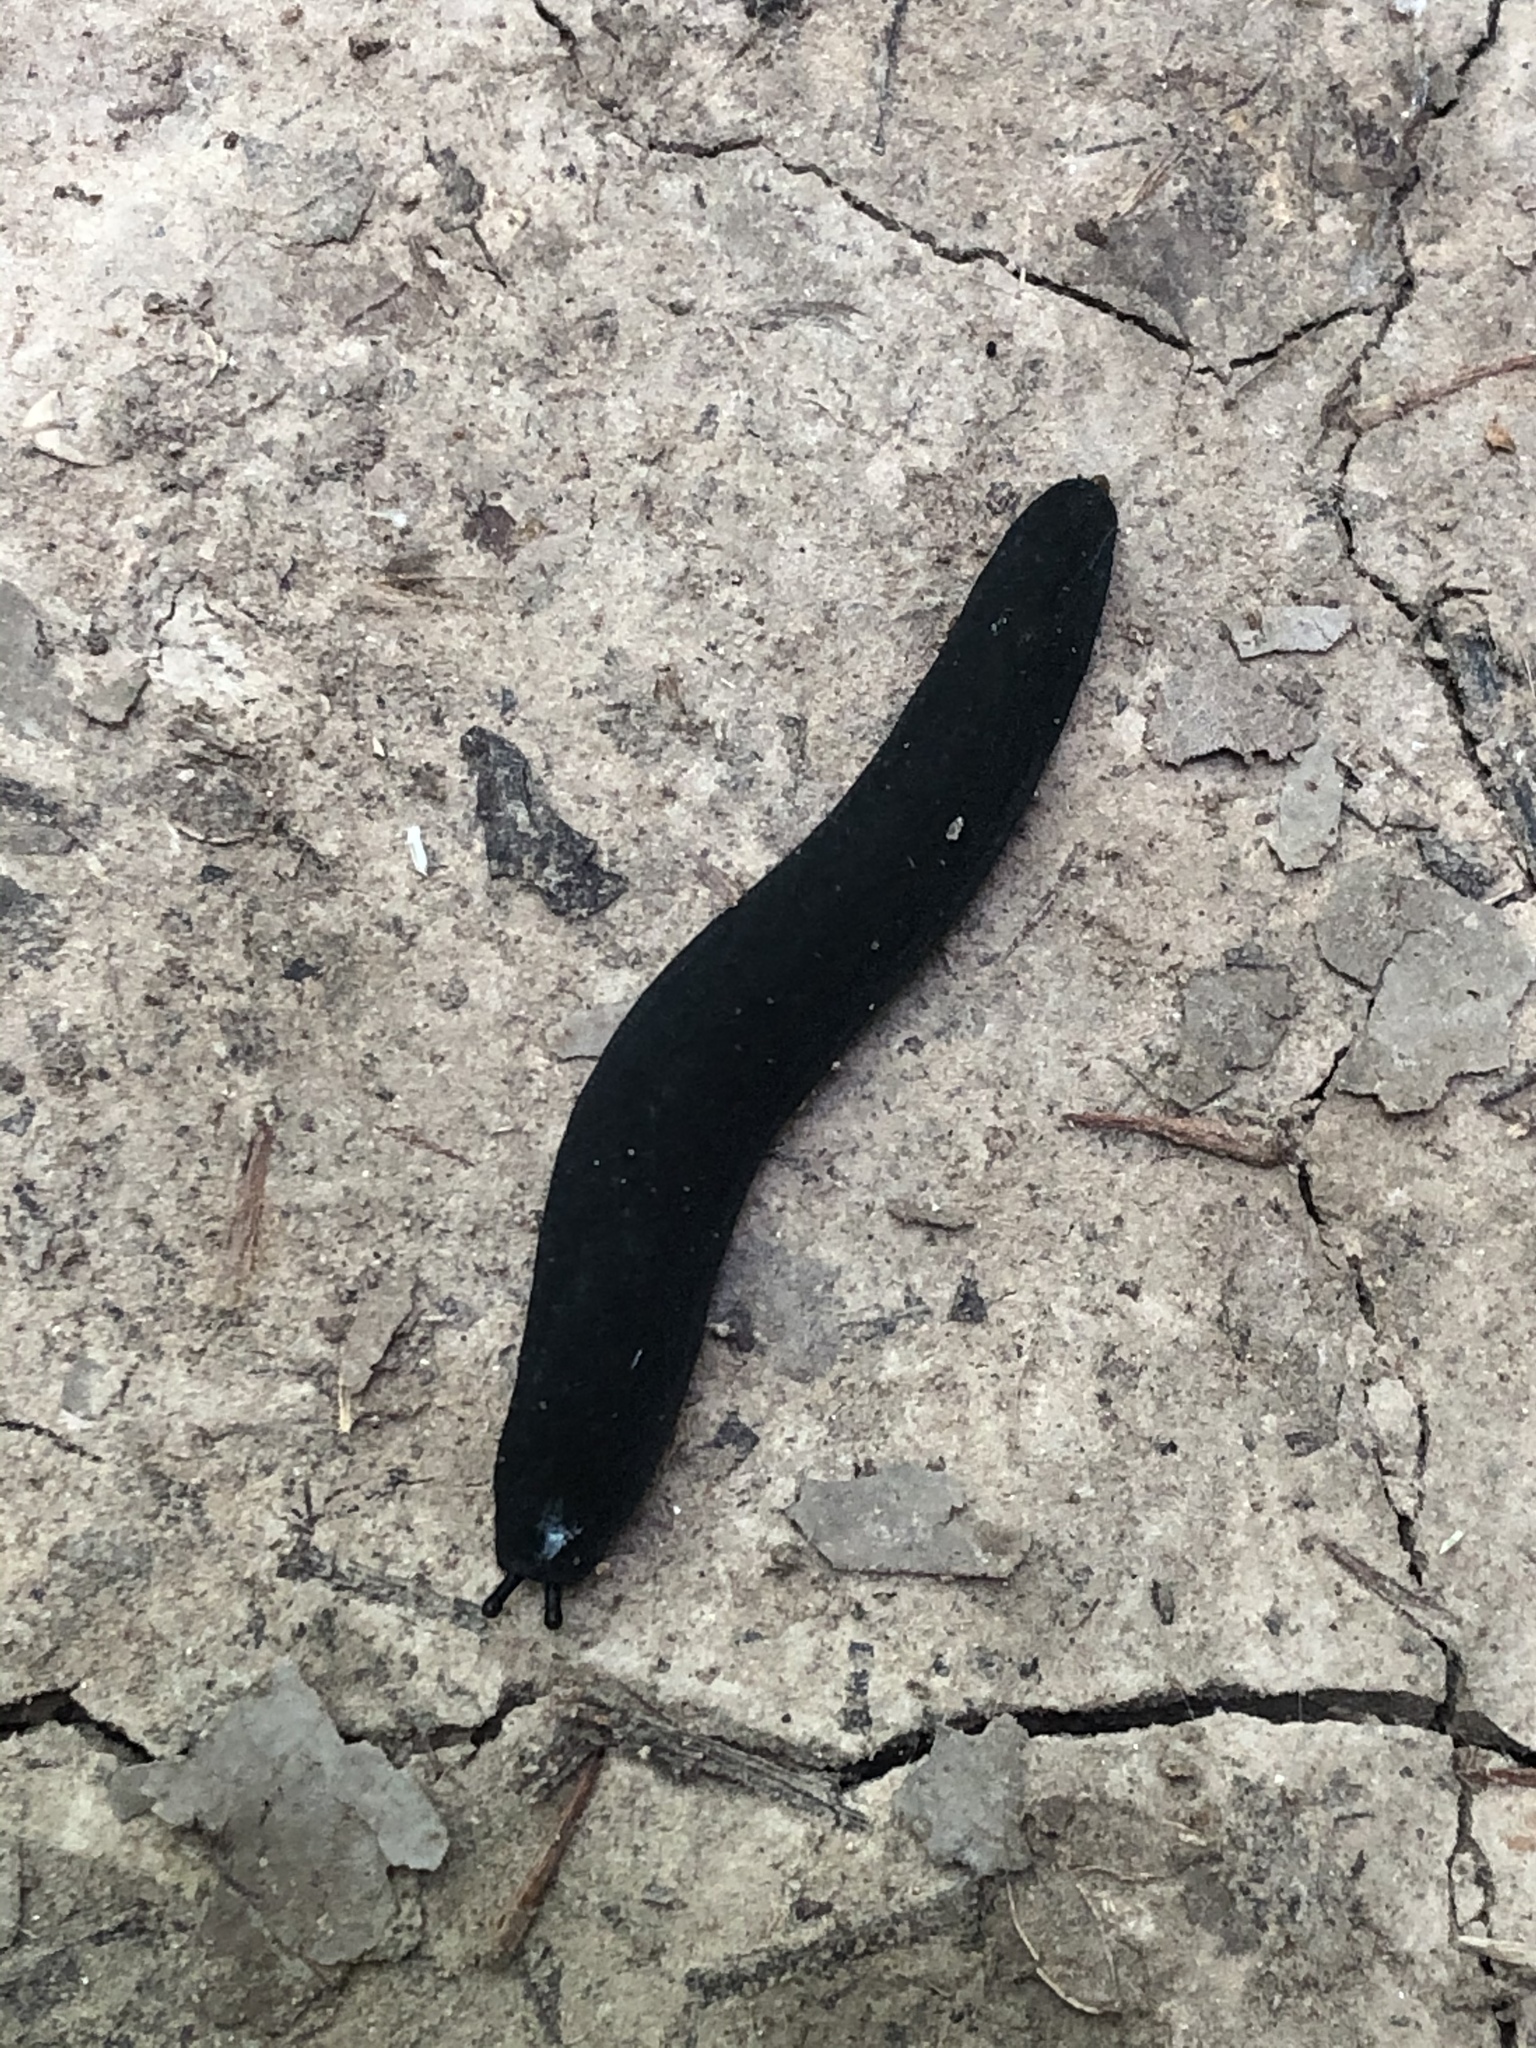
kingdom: Animalia
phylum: Mollusca
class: Gastropoda
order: Systellommatophora
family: Veronicellidae
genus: Belocaulus
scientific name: Belocaulus angustipes
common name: Black velvet leatherleaf slug
